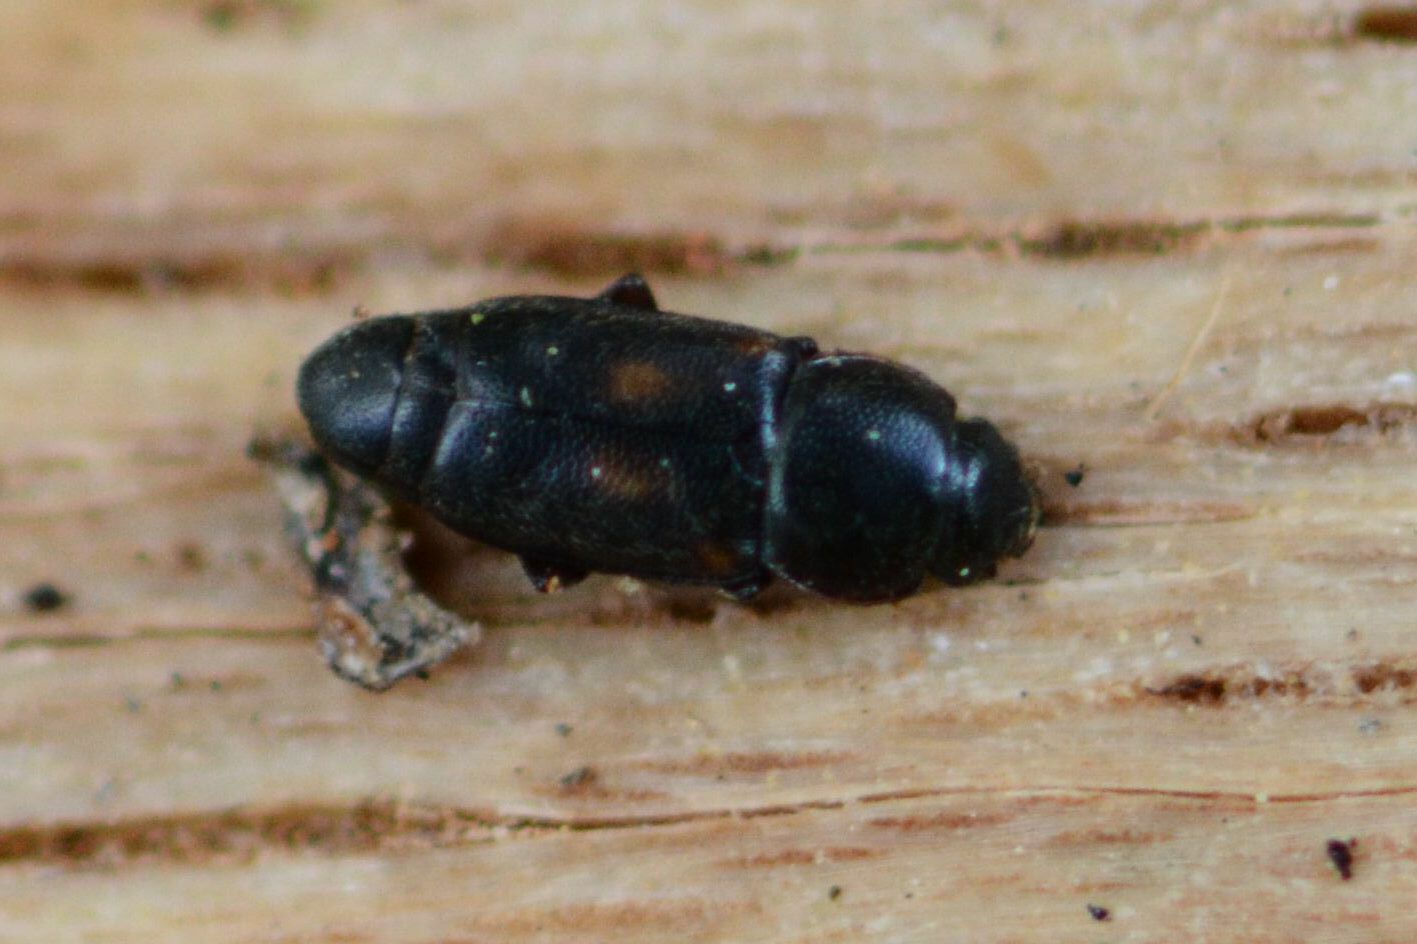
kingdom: Animalia
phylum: Arthropoda
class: Insecta
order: Coleoptera
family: Nitidulidae
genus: Carpophilus
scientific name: Carpophilus sexpustulatus
